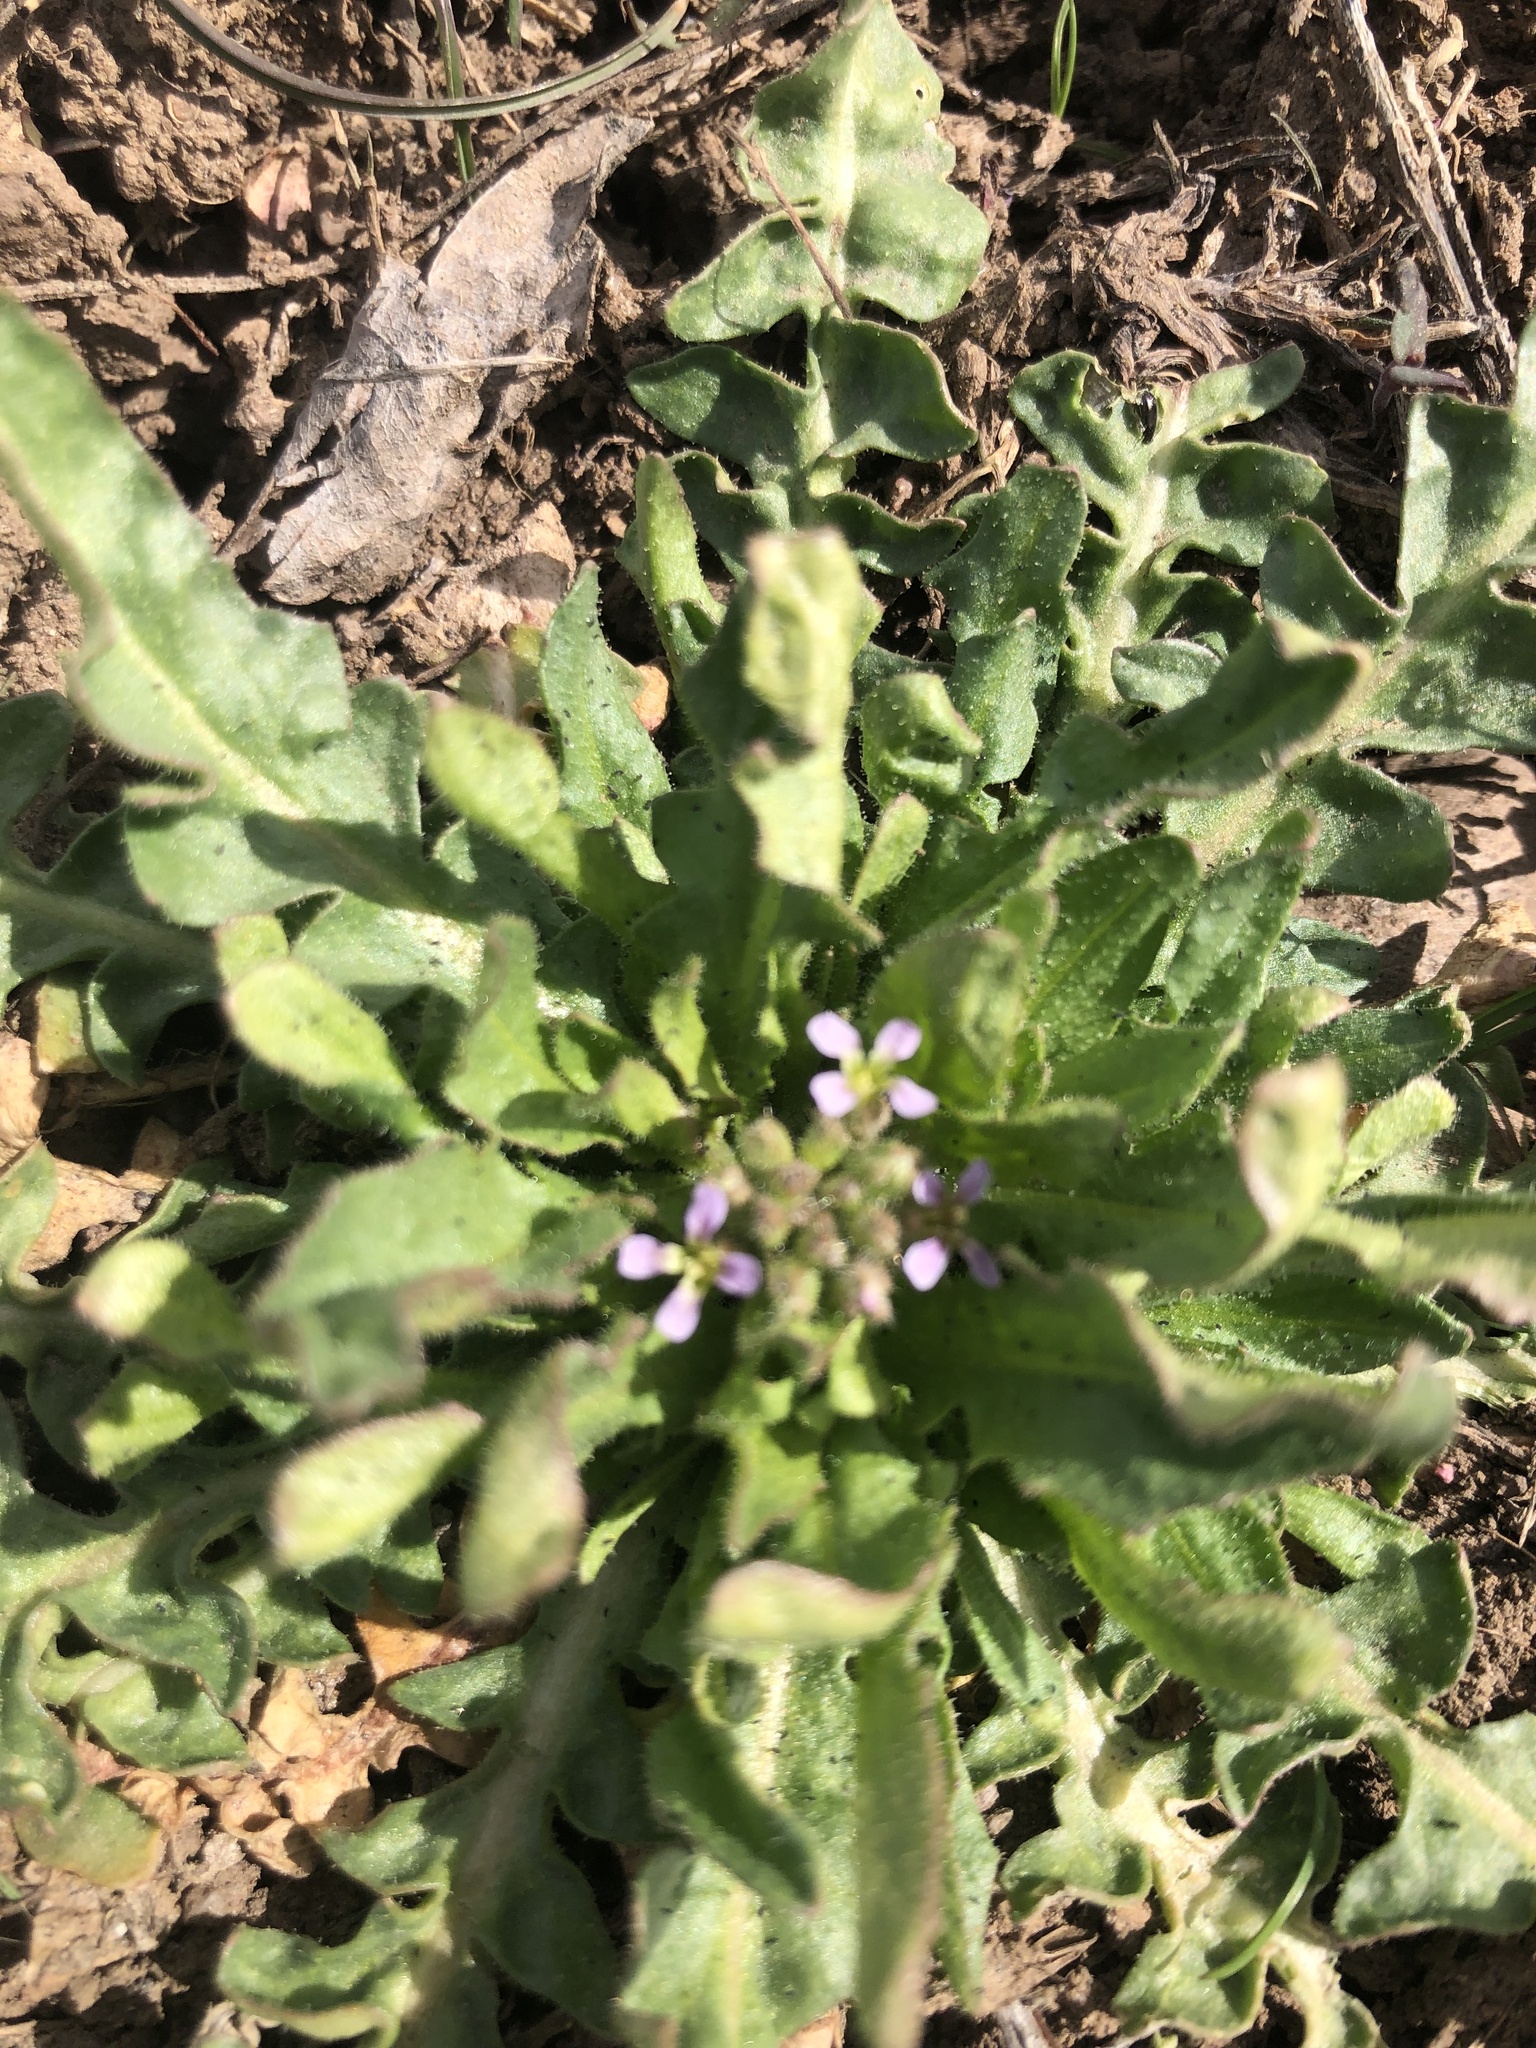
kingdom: Plantae
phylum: Tracheophyta
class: Magnoliopsida
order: Brassicales
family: Brassicaceae
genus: Chorispora
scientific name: Chorispora tenella
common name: Crossflower
